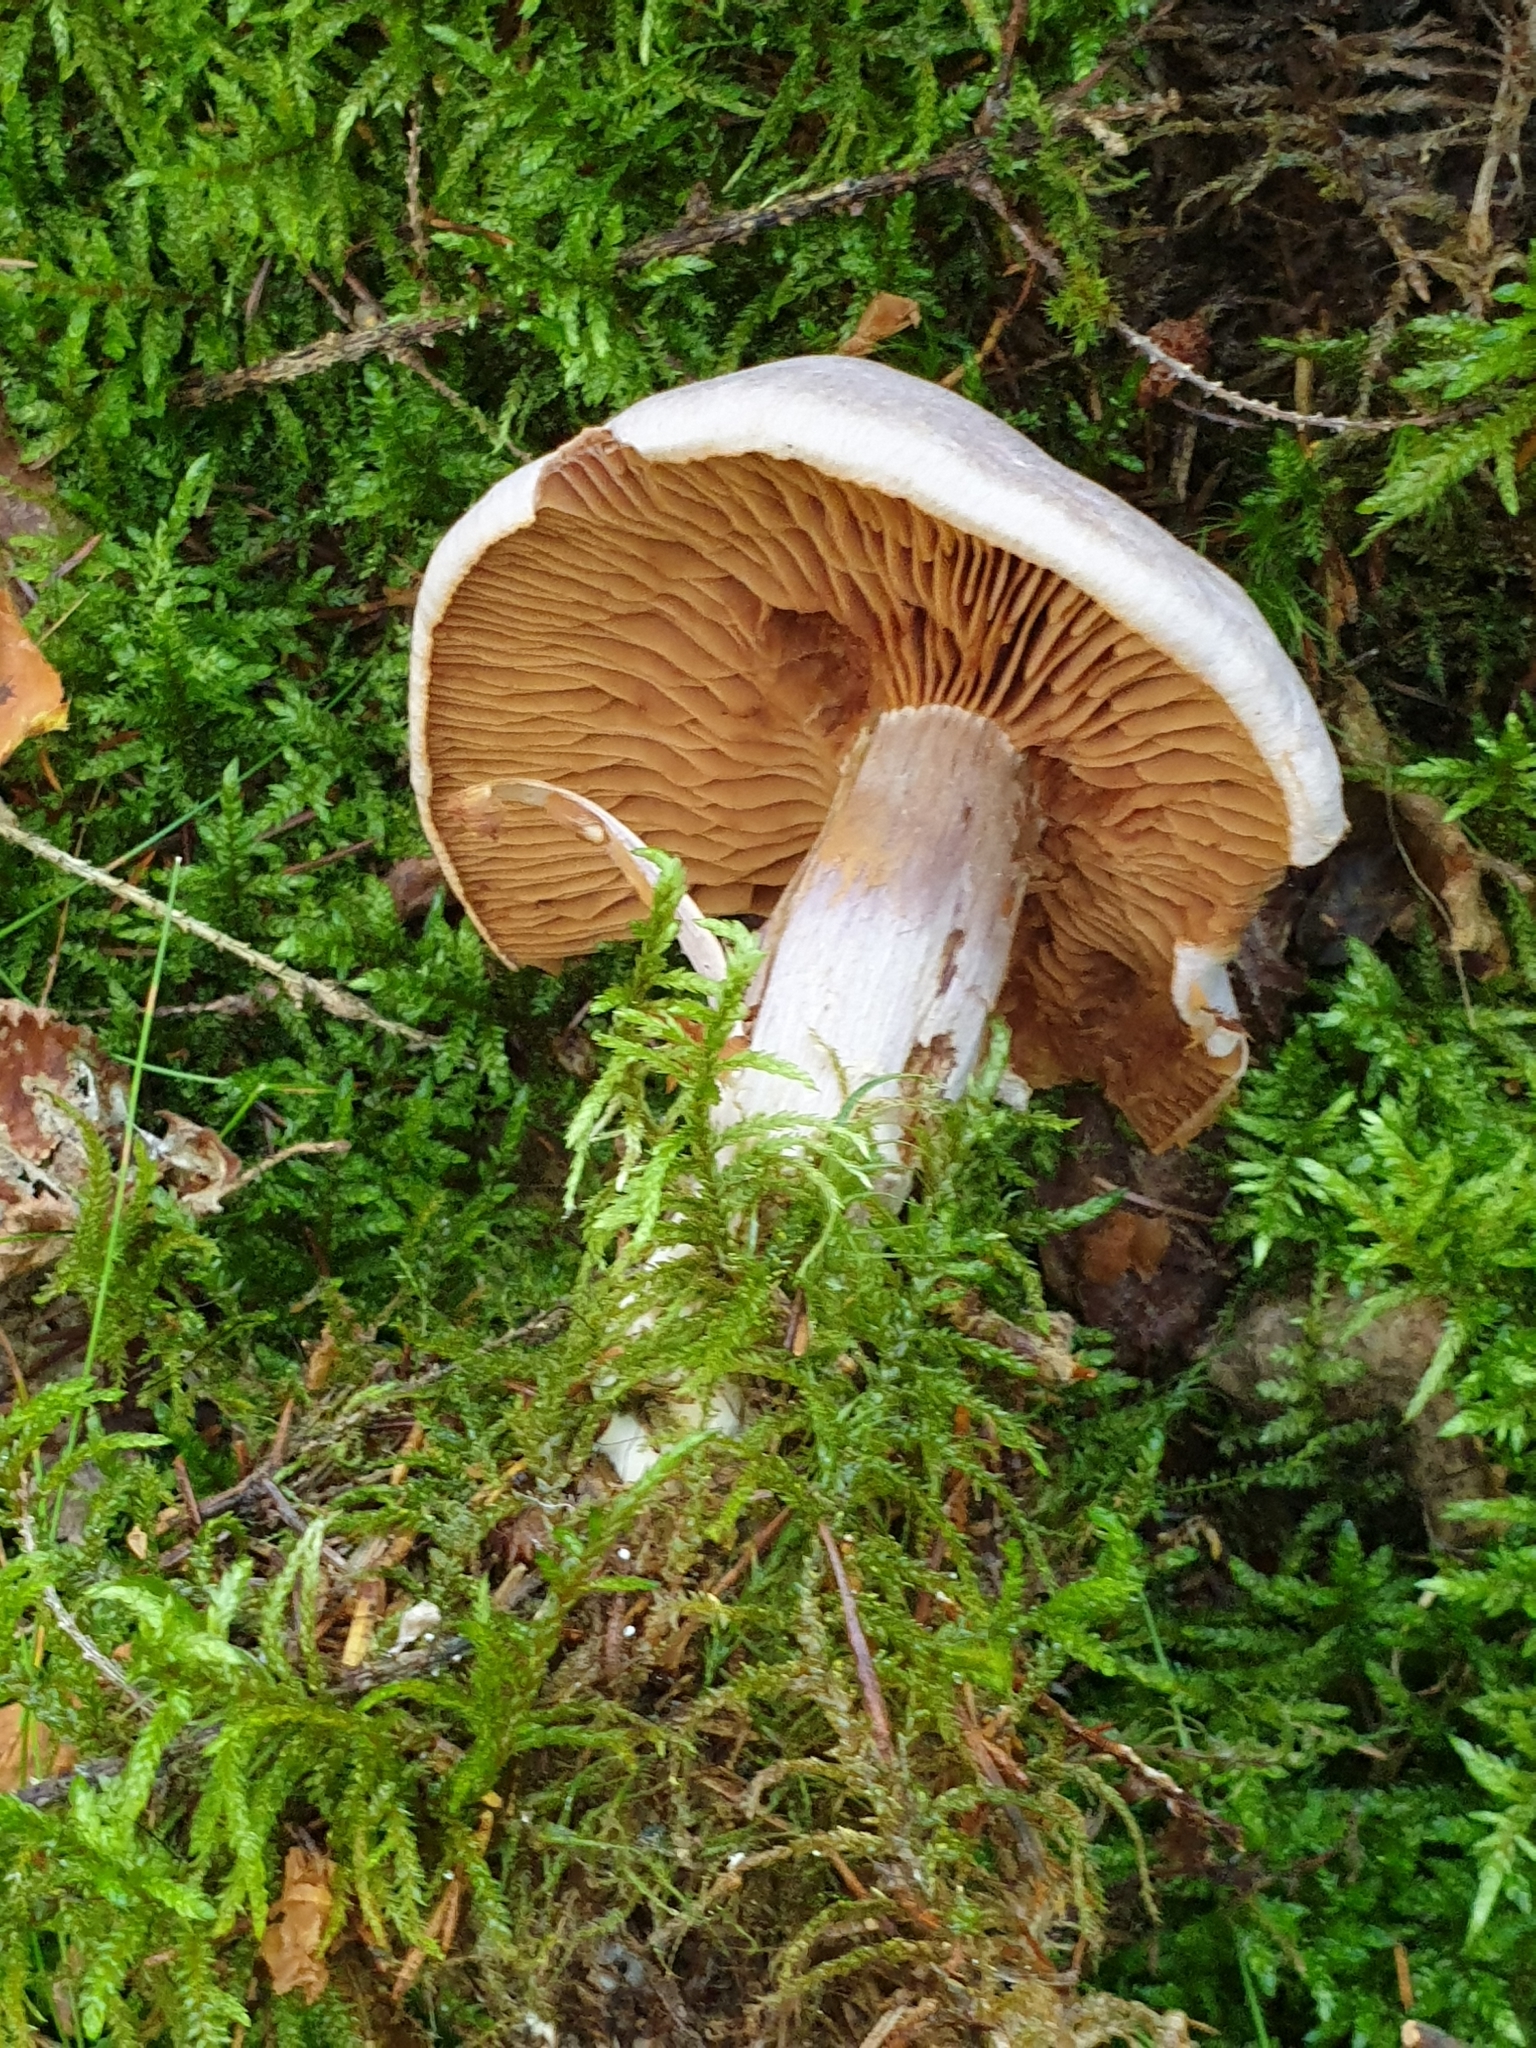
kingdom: Fungi
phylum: Basidiomycota
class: Agaricomycetes
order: Agaricales
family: Cortinariaceae
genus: Cortinarius
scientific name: Cortinarius traganus
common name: Gassy webcap
